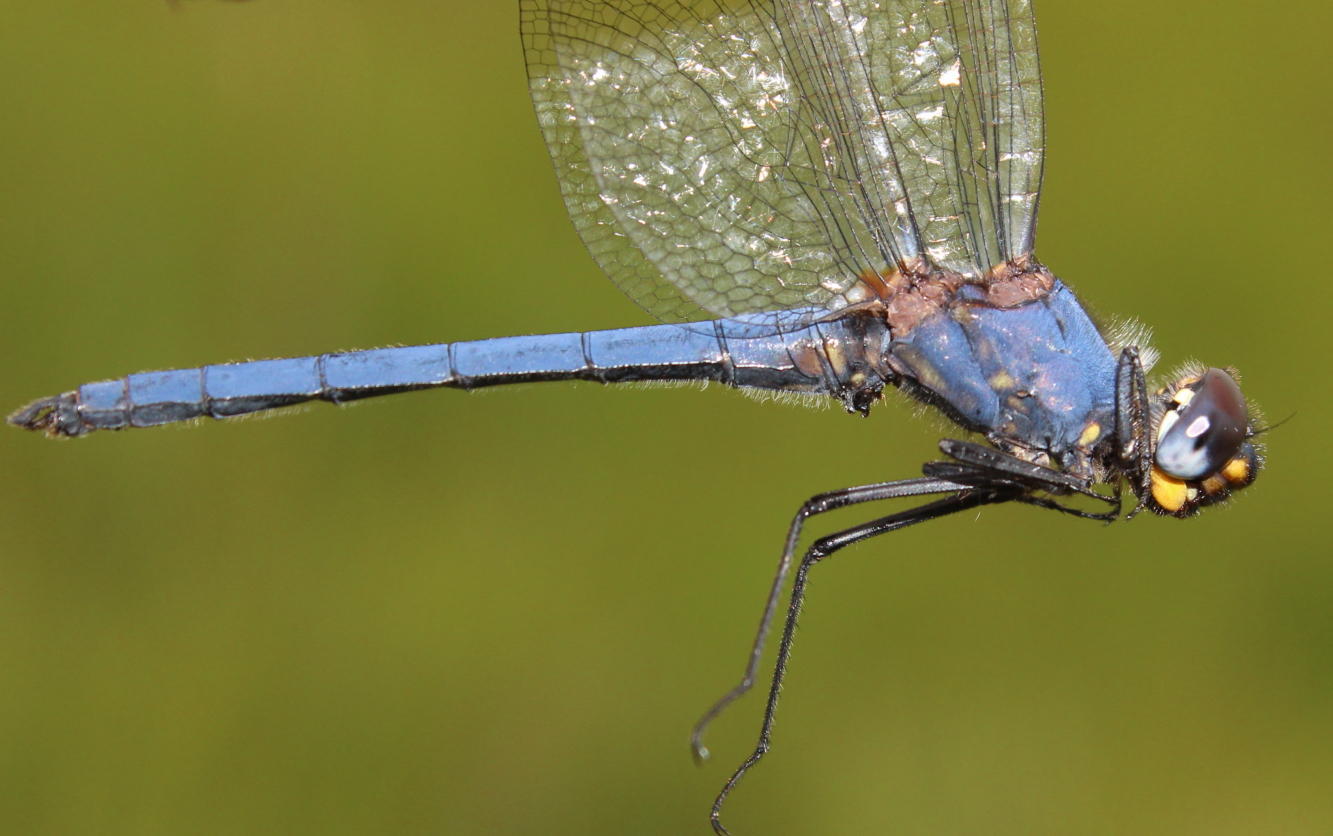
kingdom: Animalia
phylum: Arthropoda
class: Insecta
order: Odonata
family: Libellulidae
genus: Trithemis
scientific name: Trithemis dorsalis
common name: Highland dropwing
